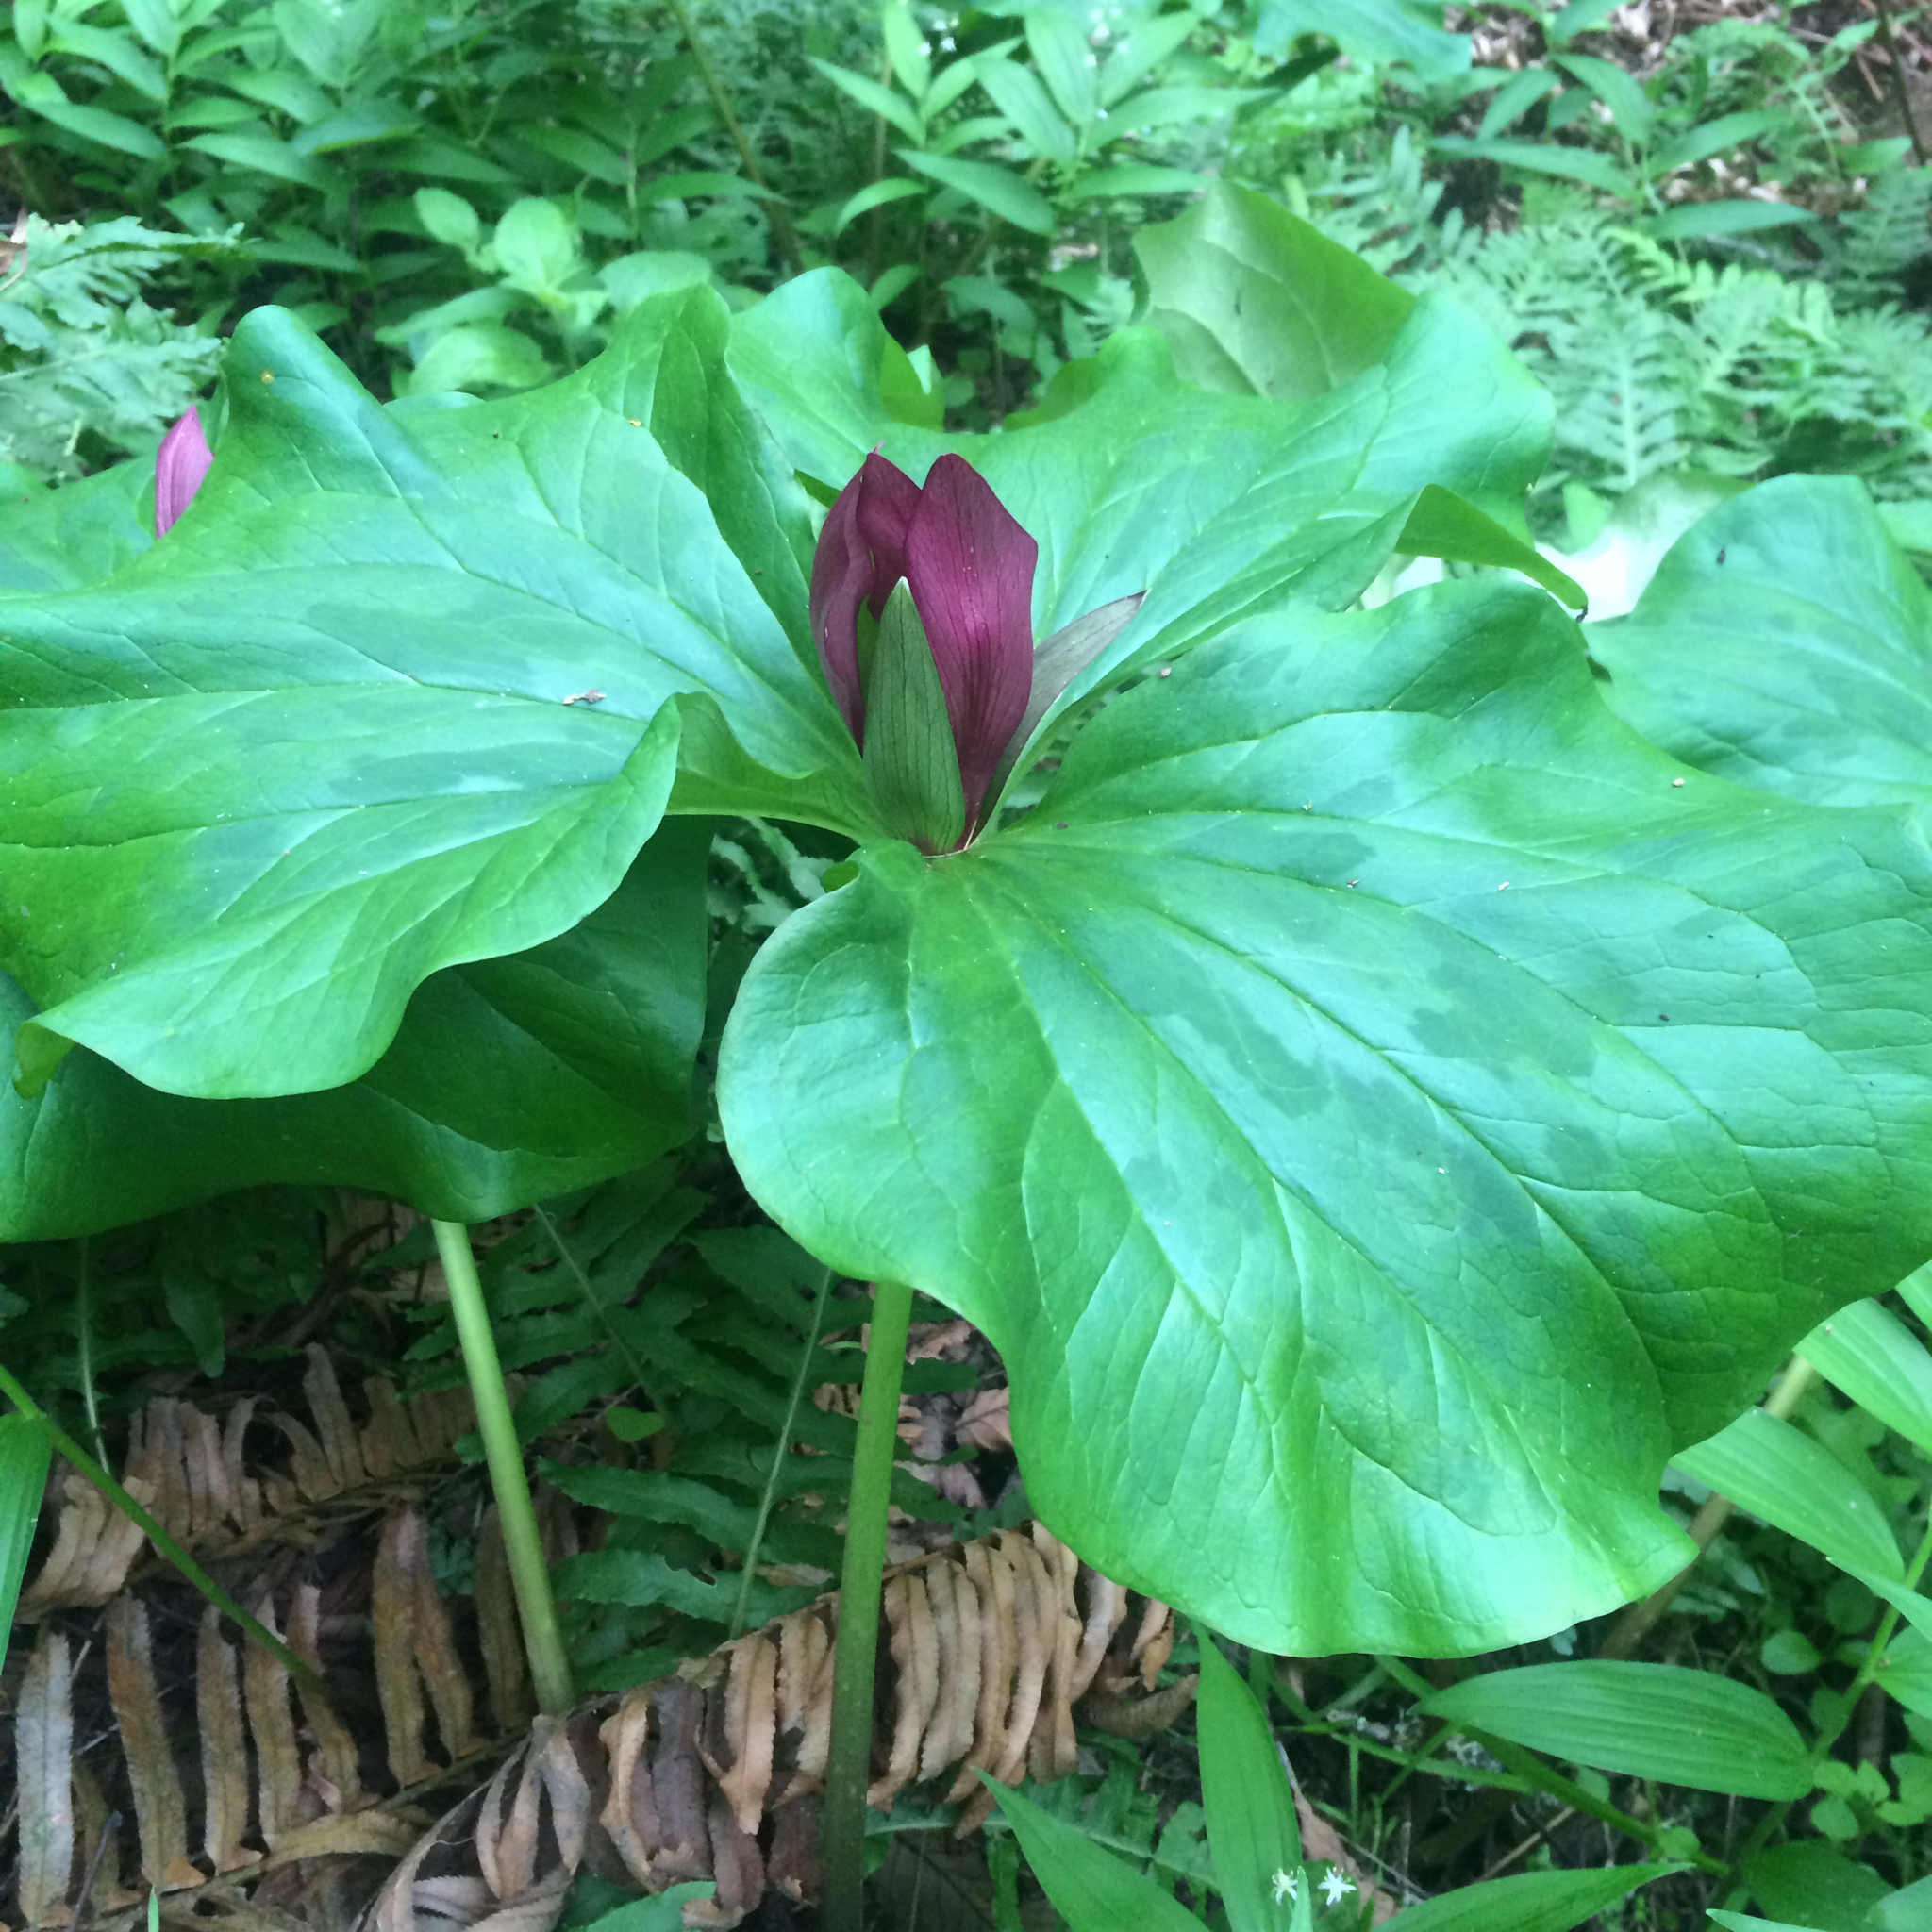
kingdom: Plantae
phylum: Tracheophyta
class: Liliopsida
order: Liliales
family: Melanthiaceae
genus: Trillium
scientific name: Trillium chloropetalum
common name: Giant trillium
